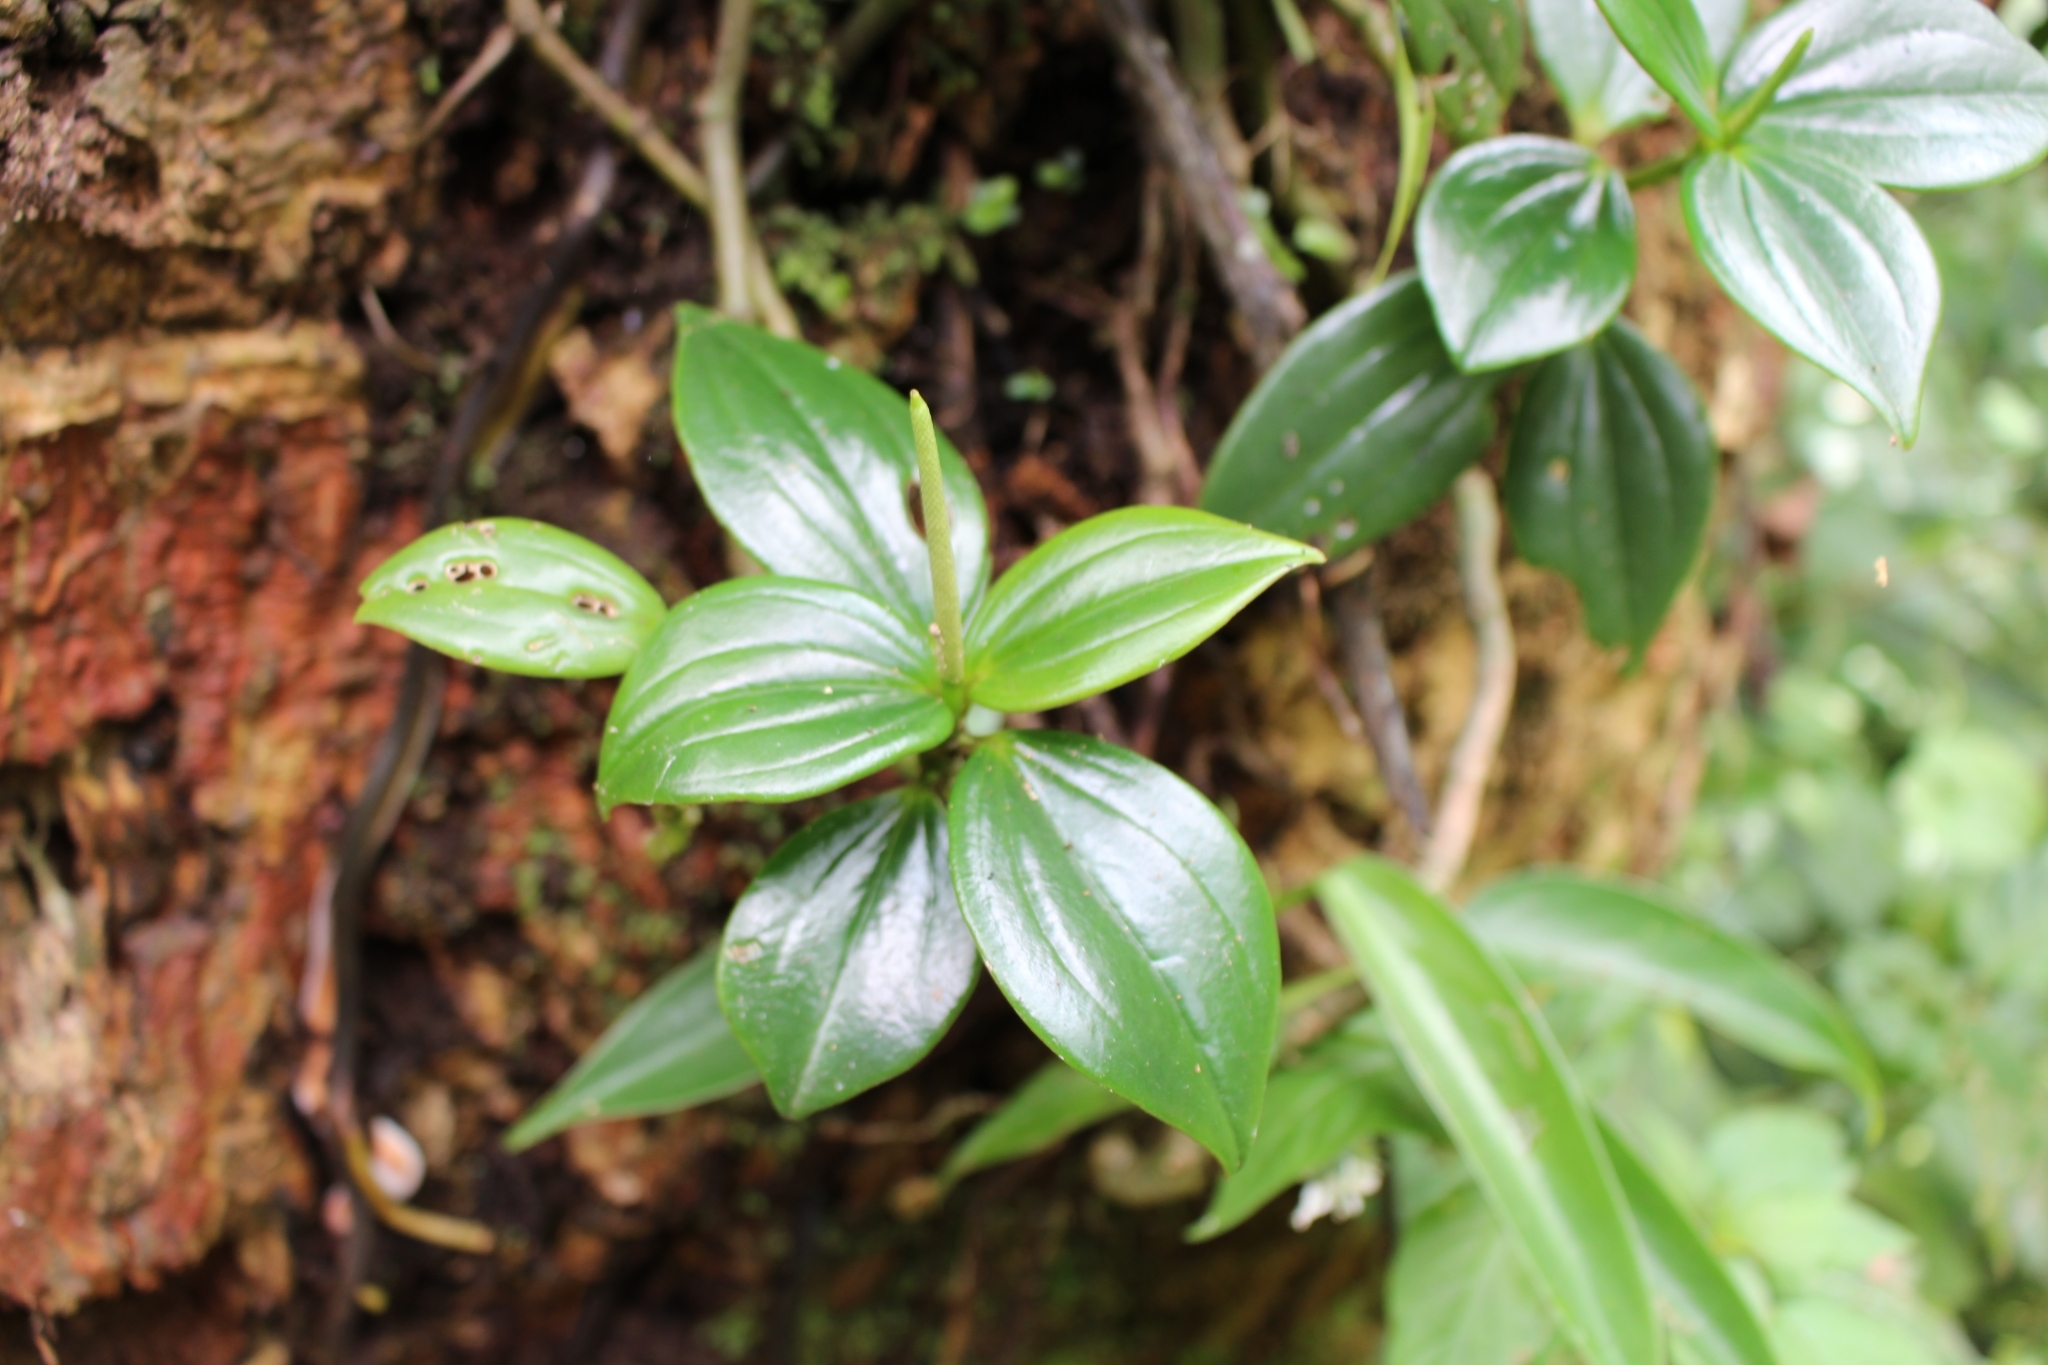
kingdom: Plantae
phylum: Tracheophyta
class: Magnoliopsida
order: Piperales
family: Piperaceae
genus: Peperomia
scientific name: Peperomia san-joseana
